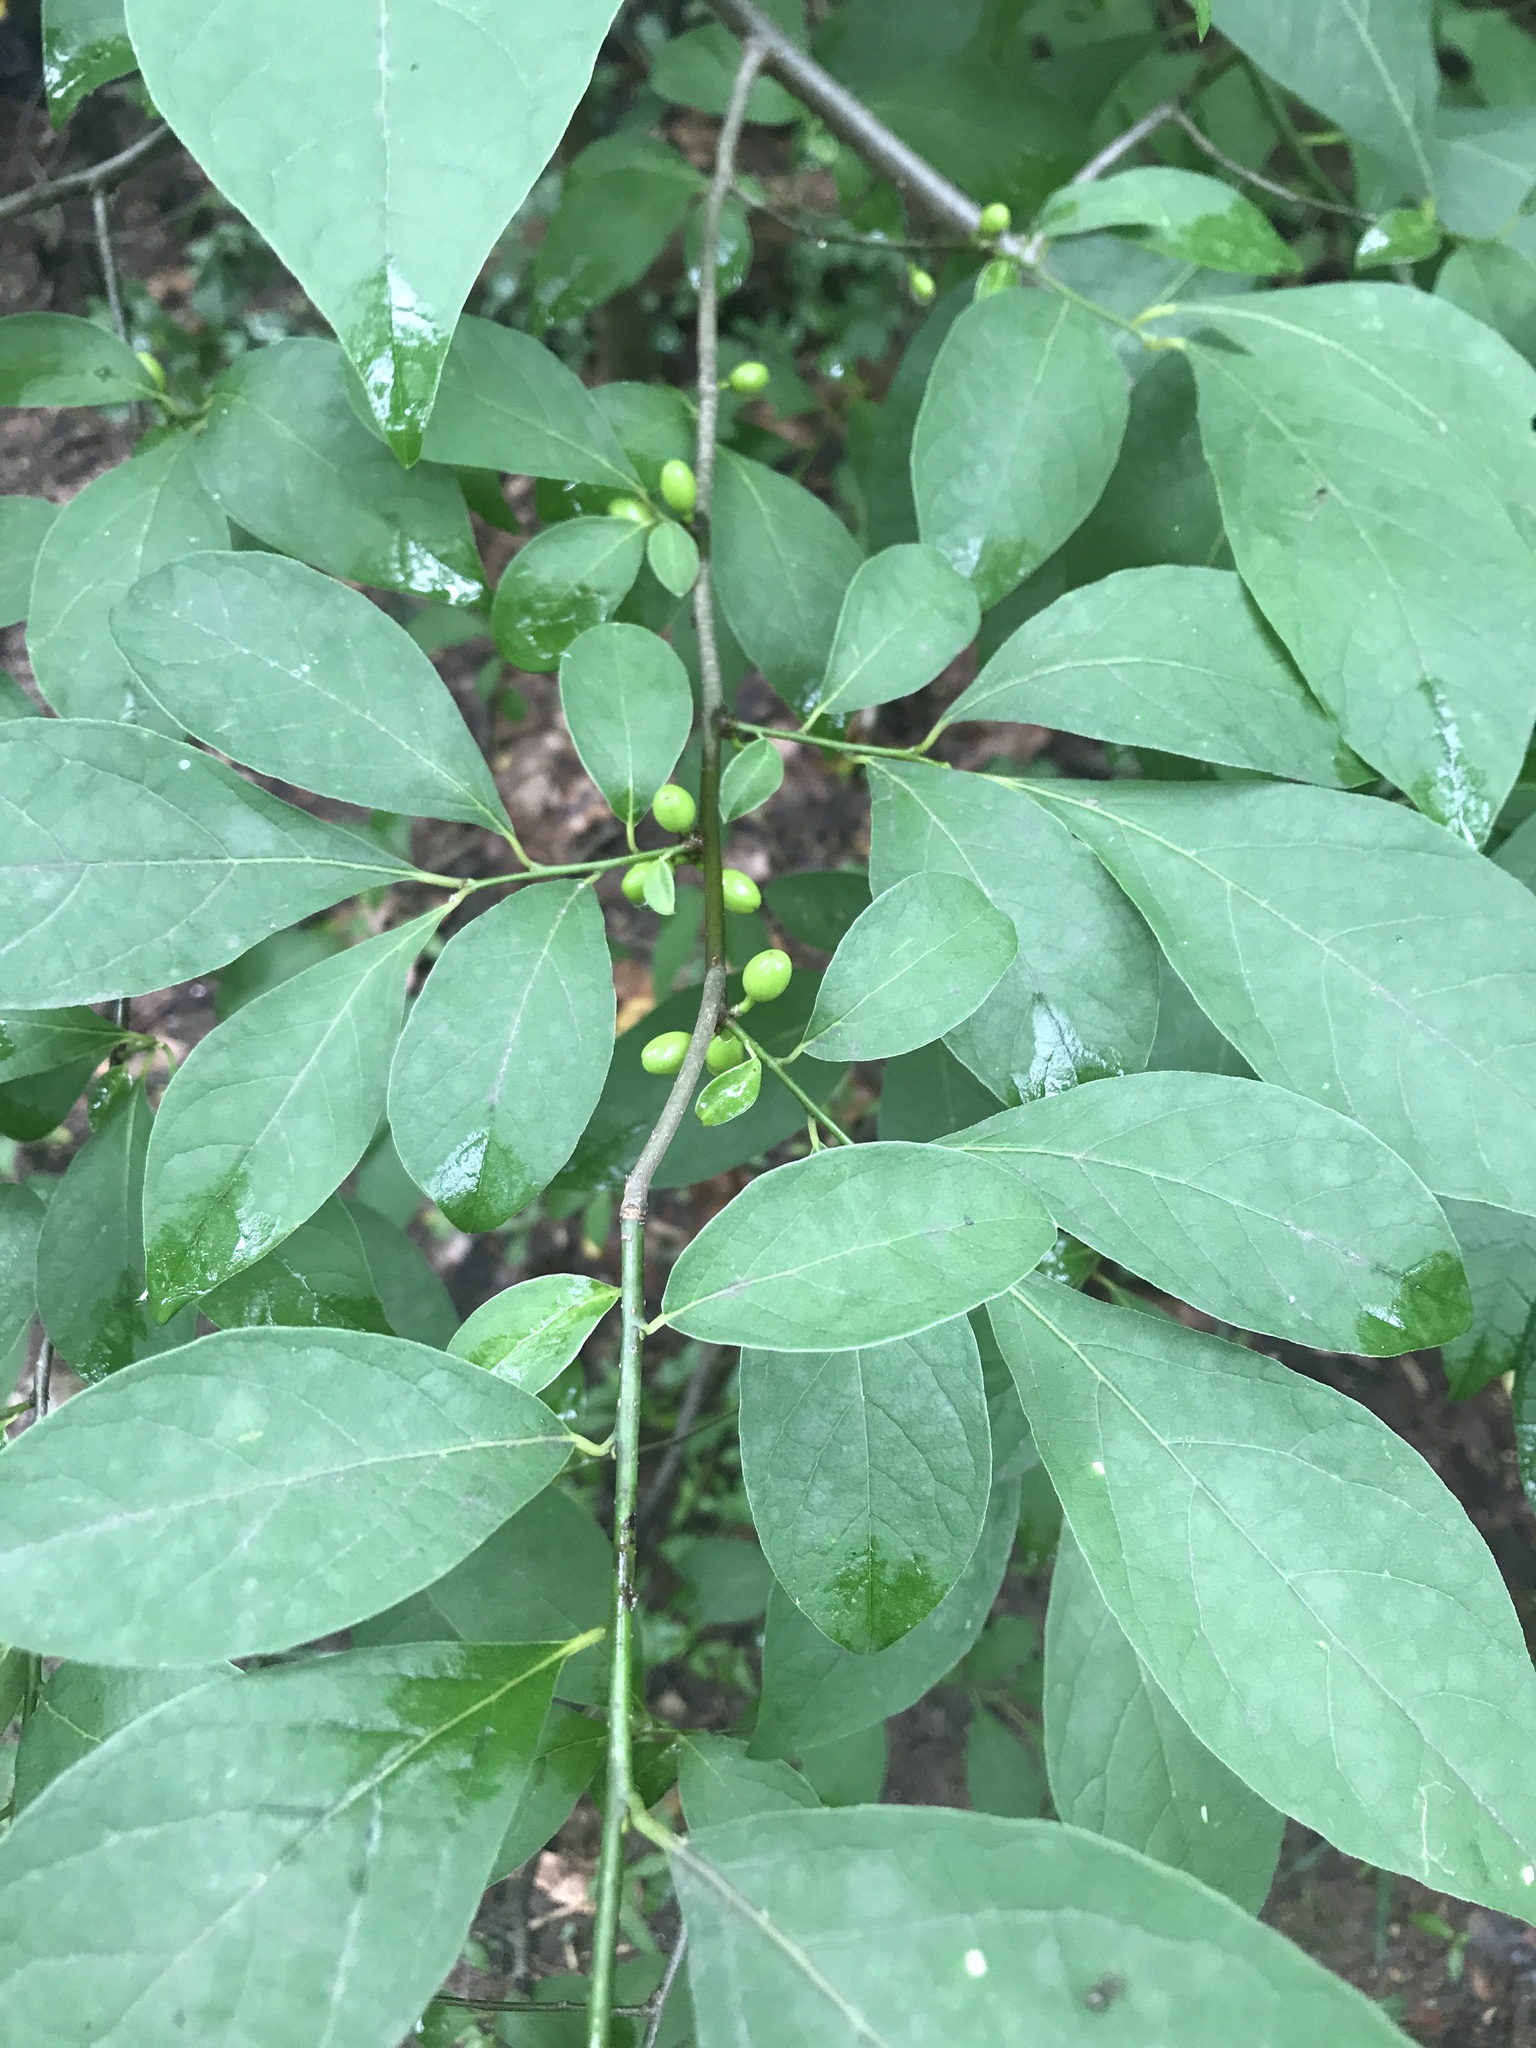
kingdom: Plantae
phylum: Tracheophyta
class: Magnoliopsida
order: Laurales
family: Lauraceae
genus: Lindera
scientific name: Lindera benzoin
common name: Spicebush
